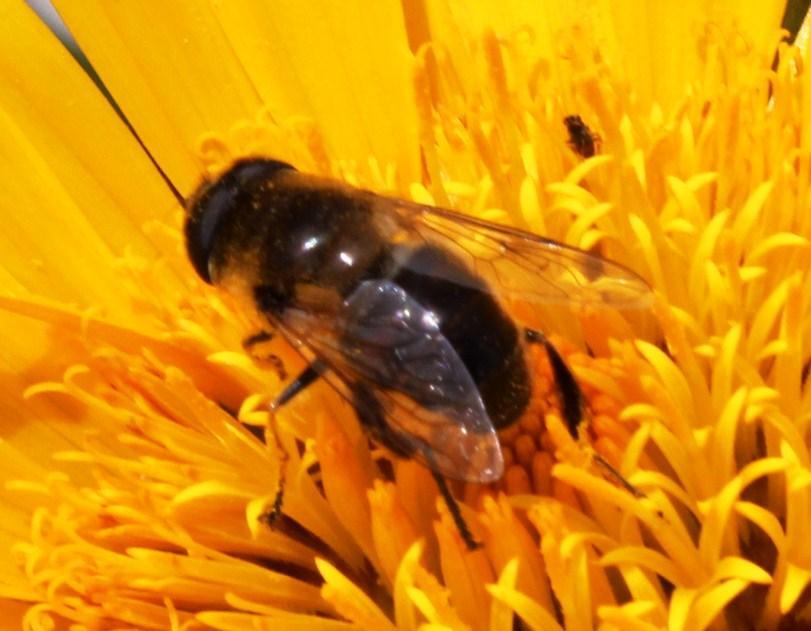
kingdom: Animalia
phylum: Arthropoda
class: Insecta
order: Diptera
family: Syrphidae
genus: Eristalis
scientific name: Eristalis tenax
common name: Drone fly
